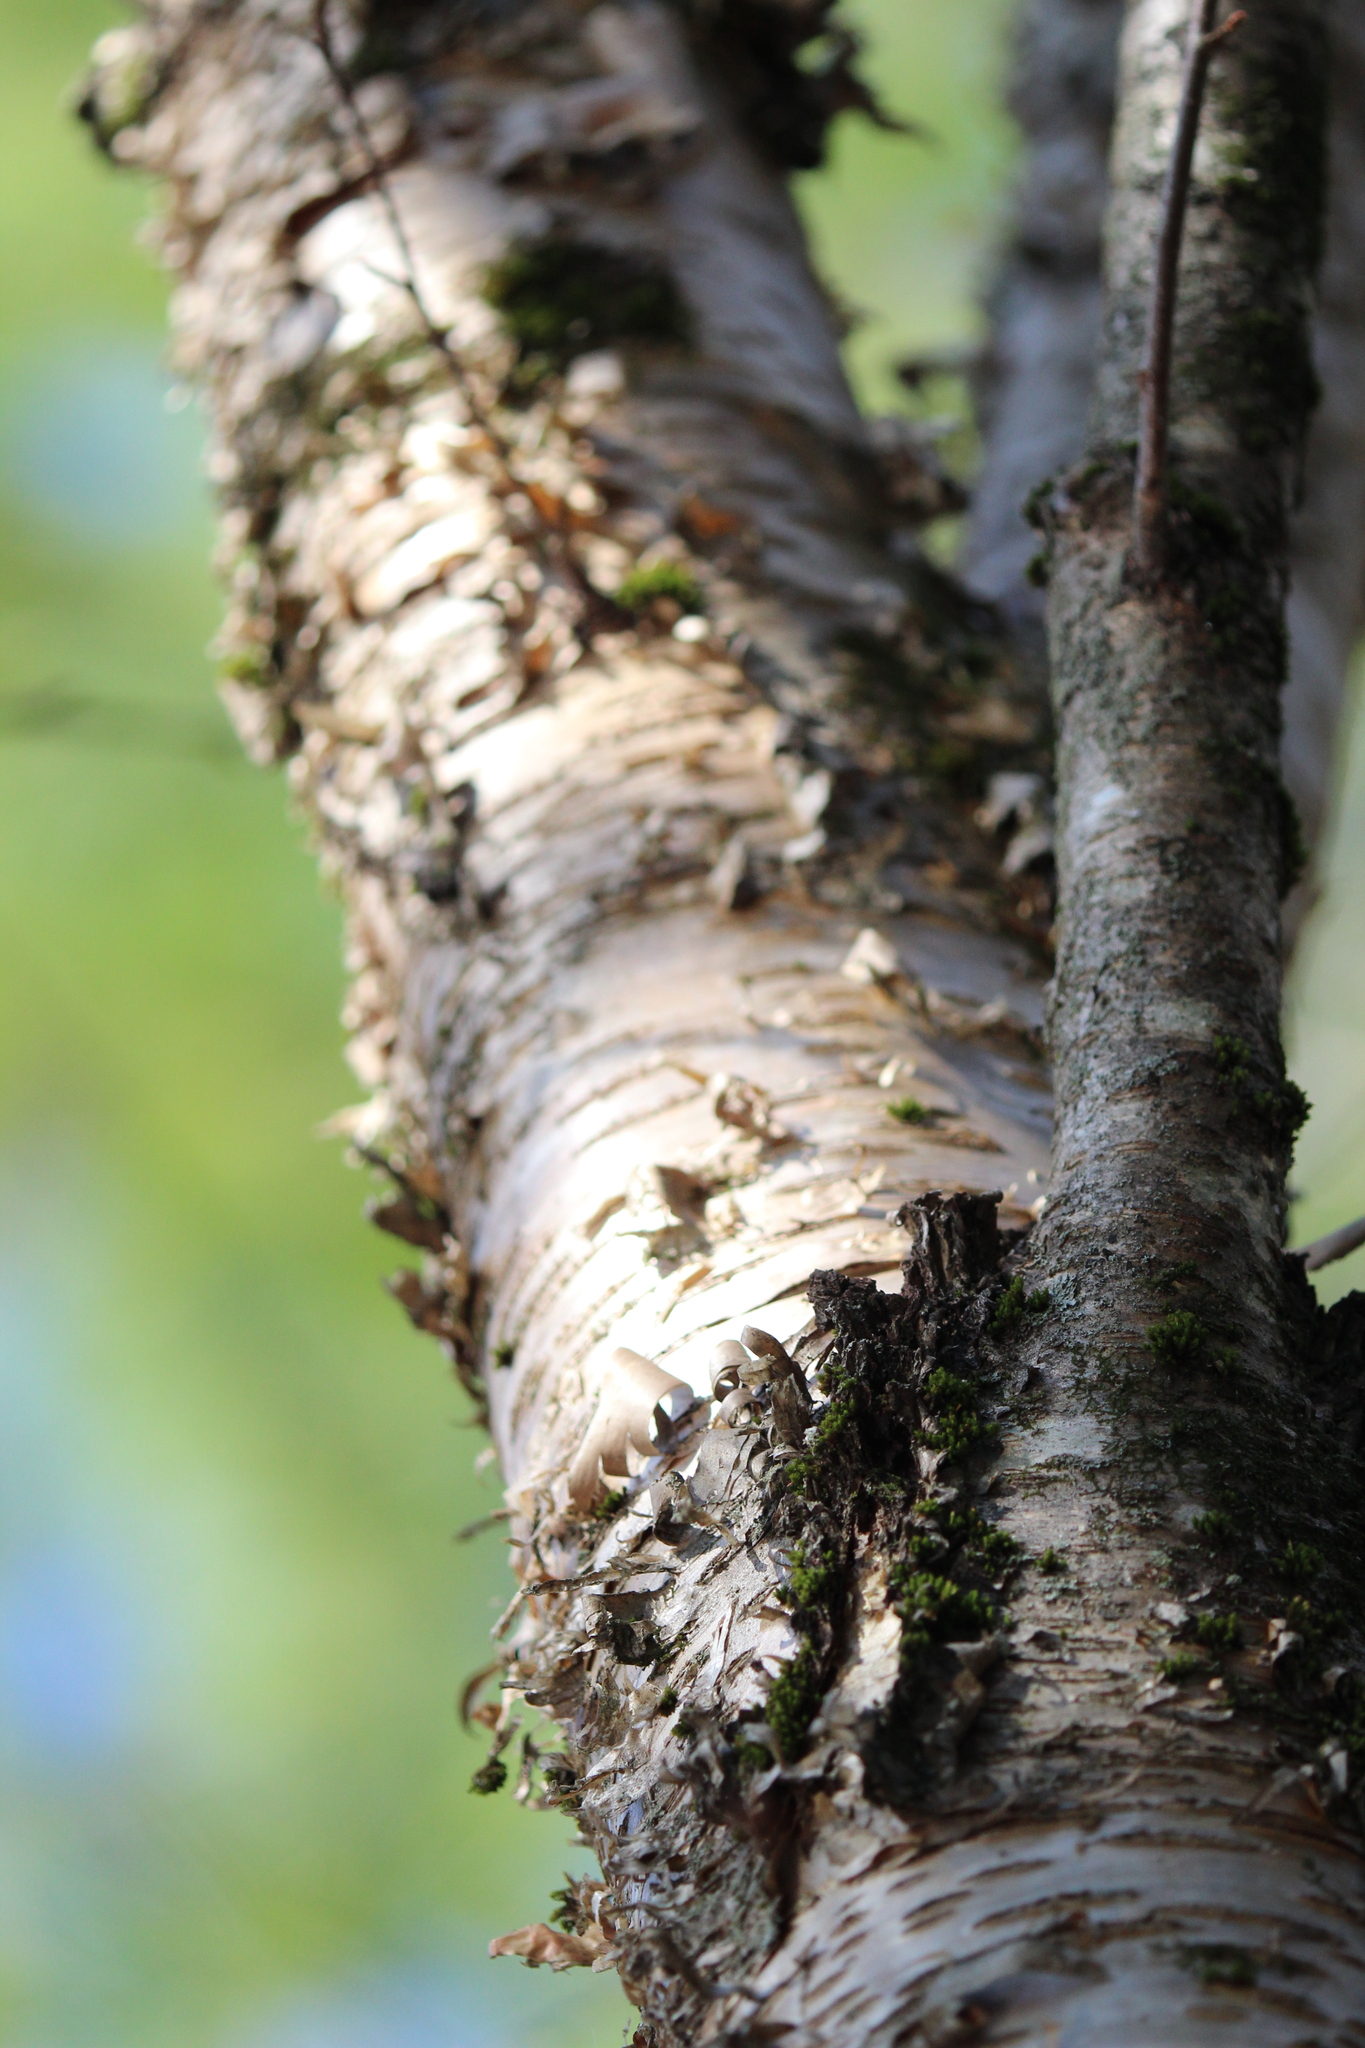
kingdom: Plantae
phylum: Tracheophyta
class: Magnoliopsida
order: Fagales
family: Betulaceae
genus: Betula
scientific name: Betula alleghaniensis
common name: Yellow birch
